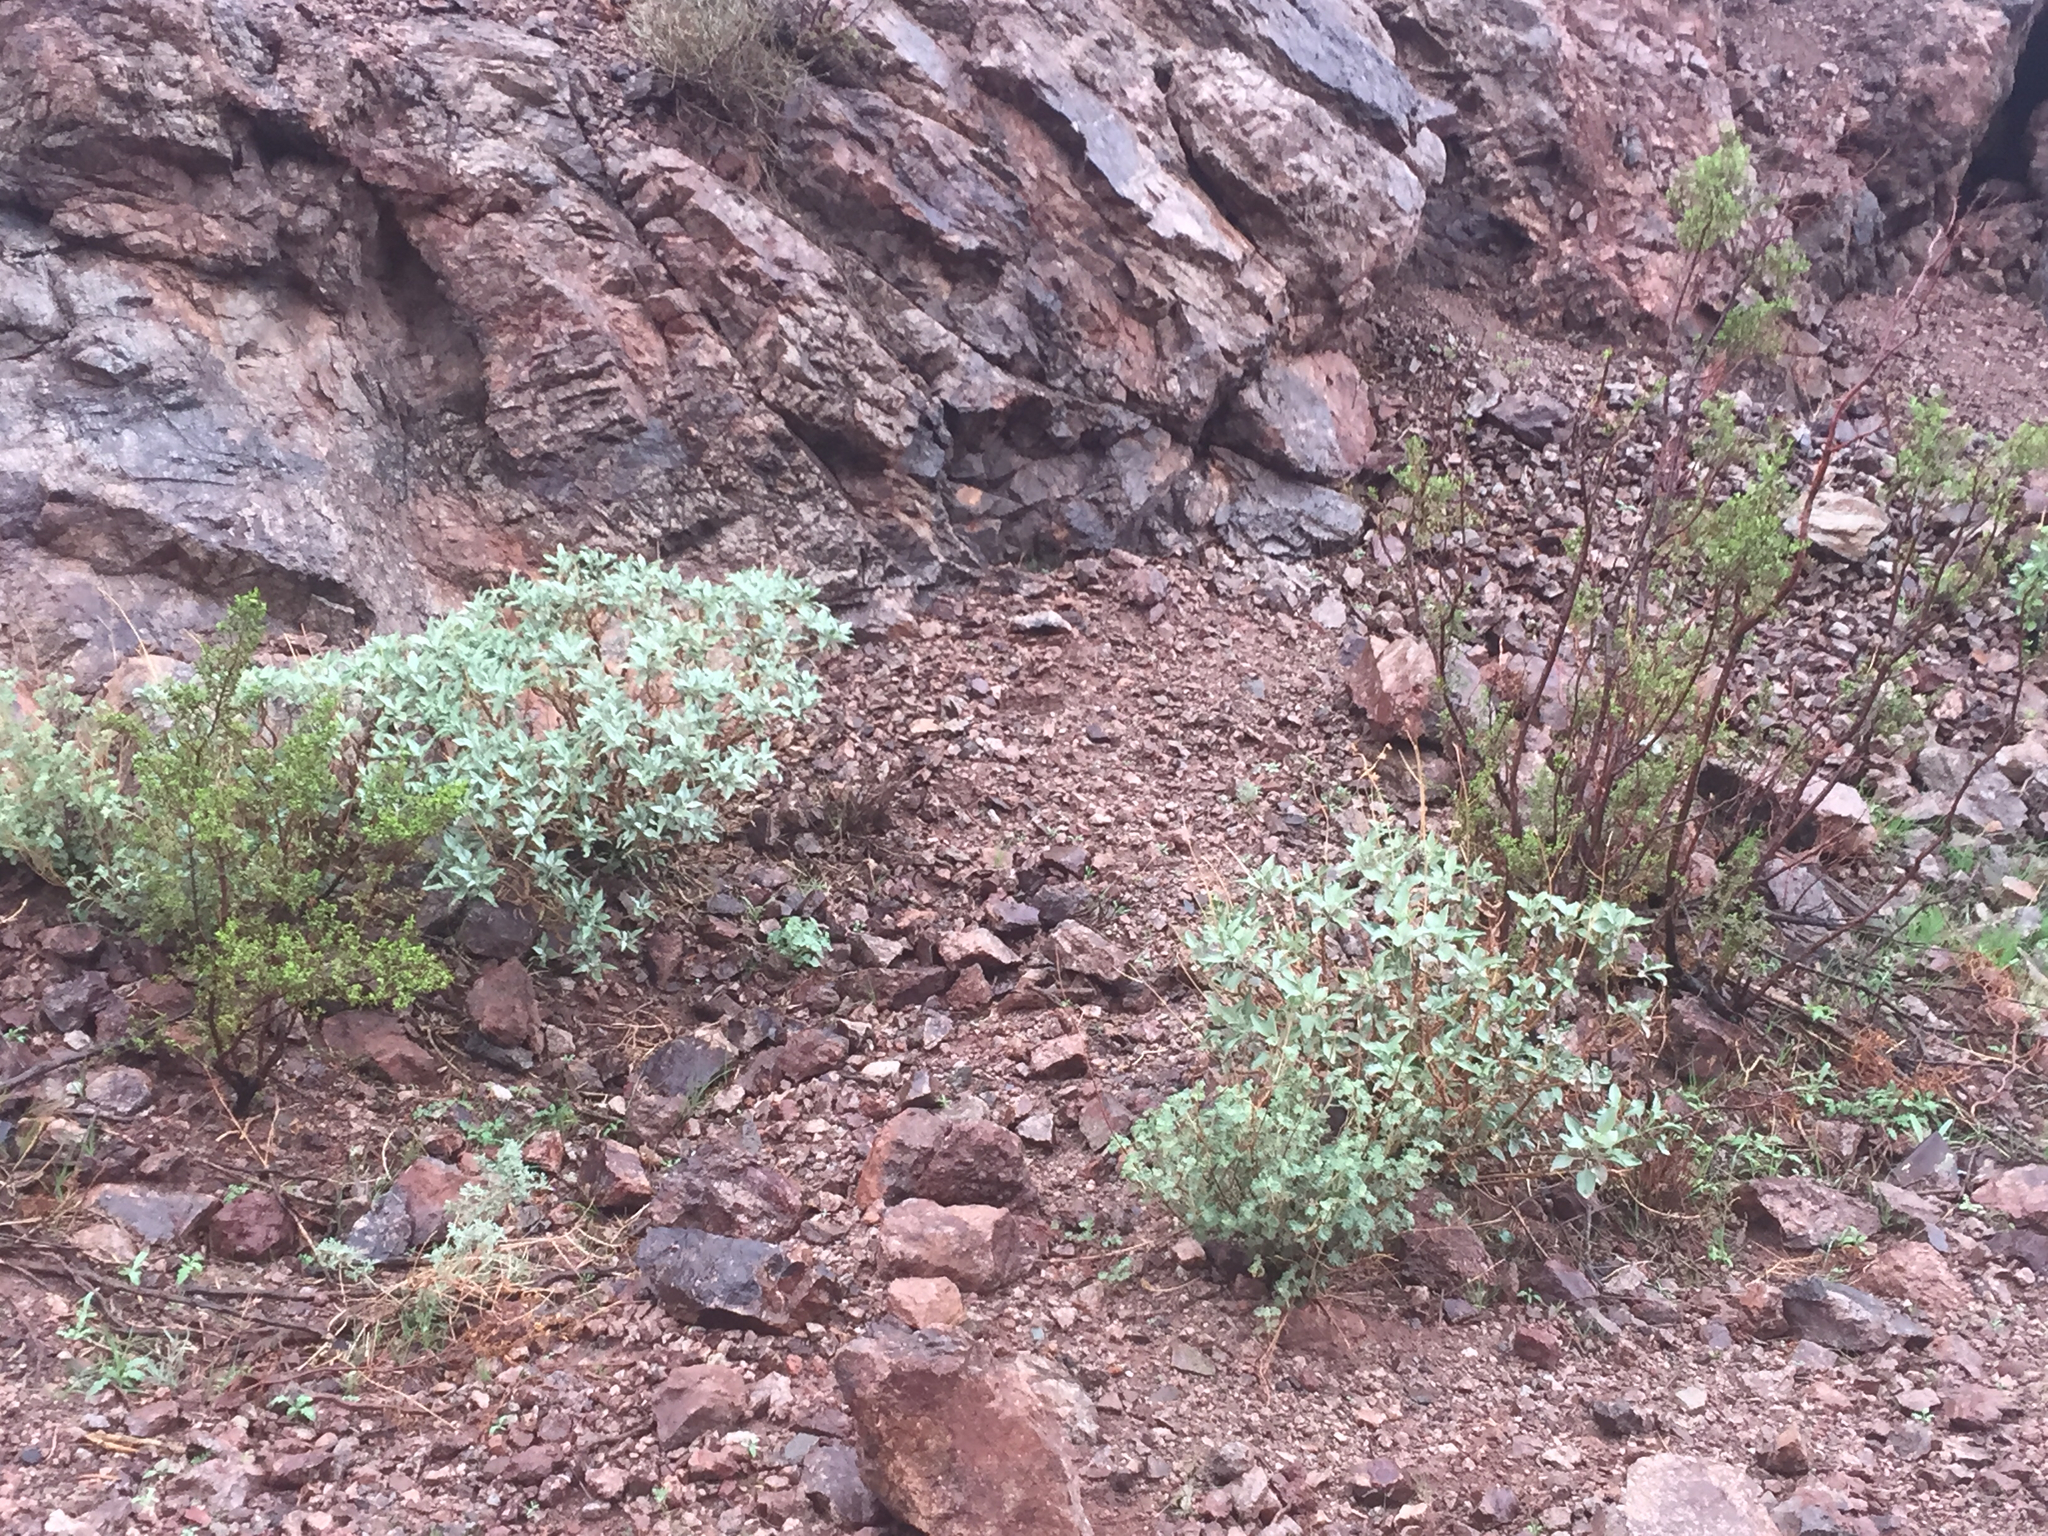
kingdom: Plantae
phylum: Tracheophyta
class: Magnoliopsida
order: Asterales
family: Asteraceae
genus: Encelia
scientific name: Encelia farinosa
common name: Brittlebush
